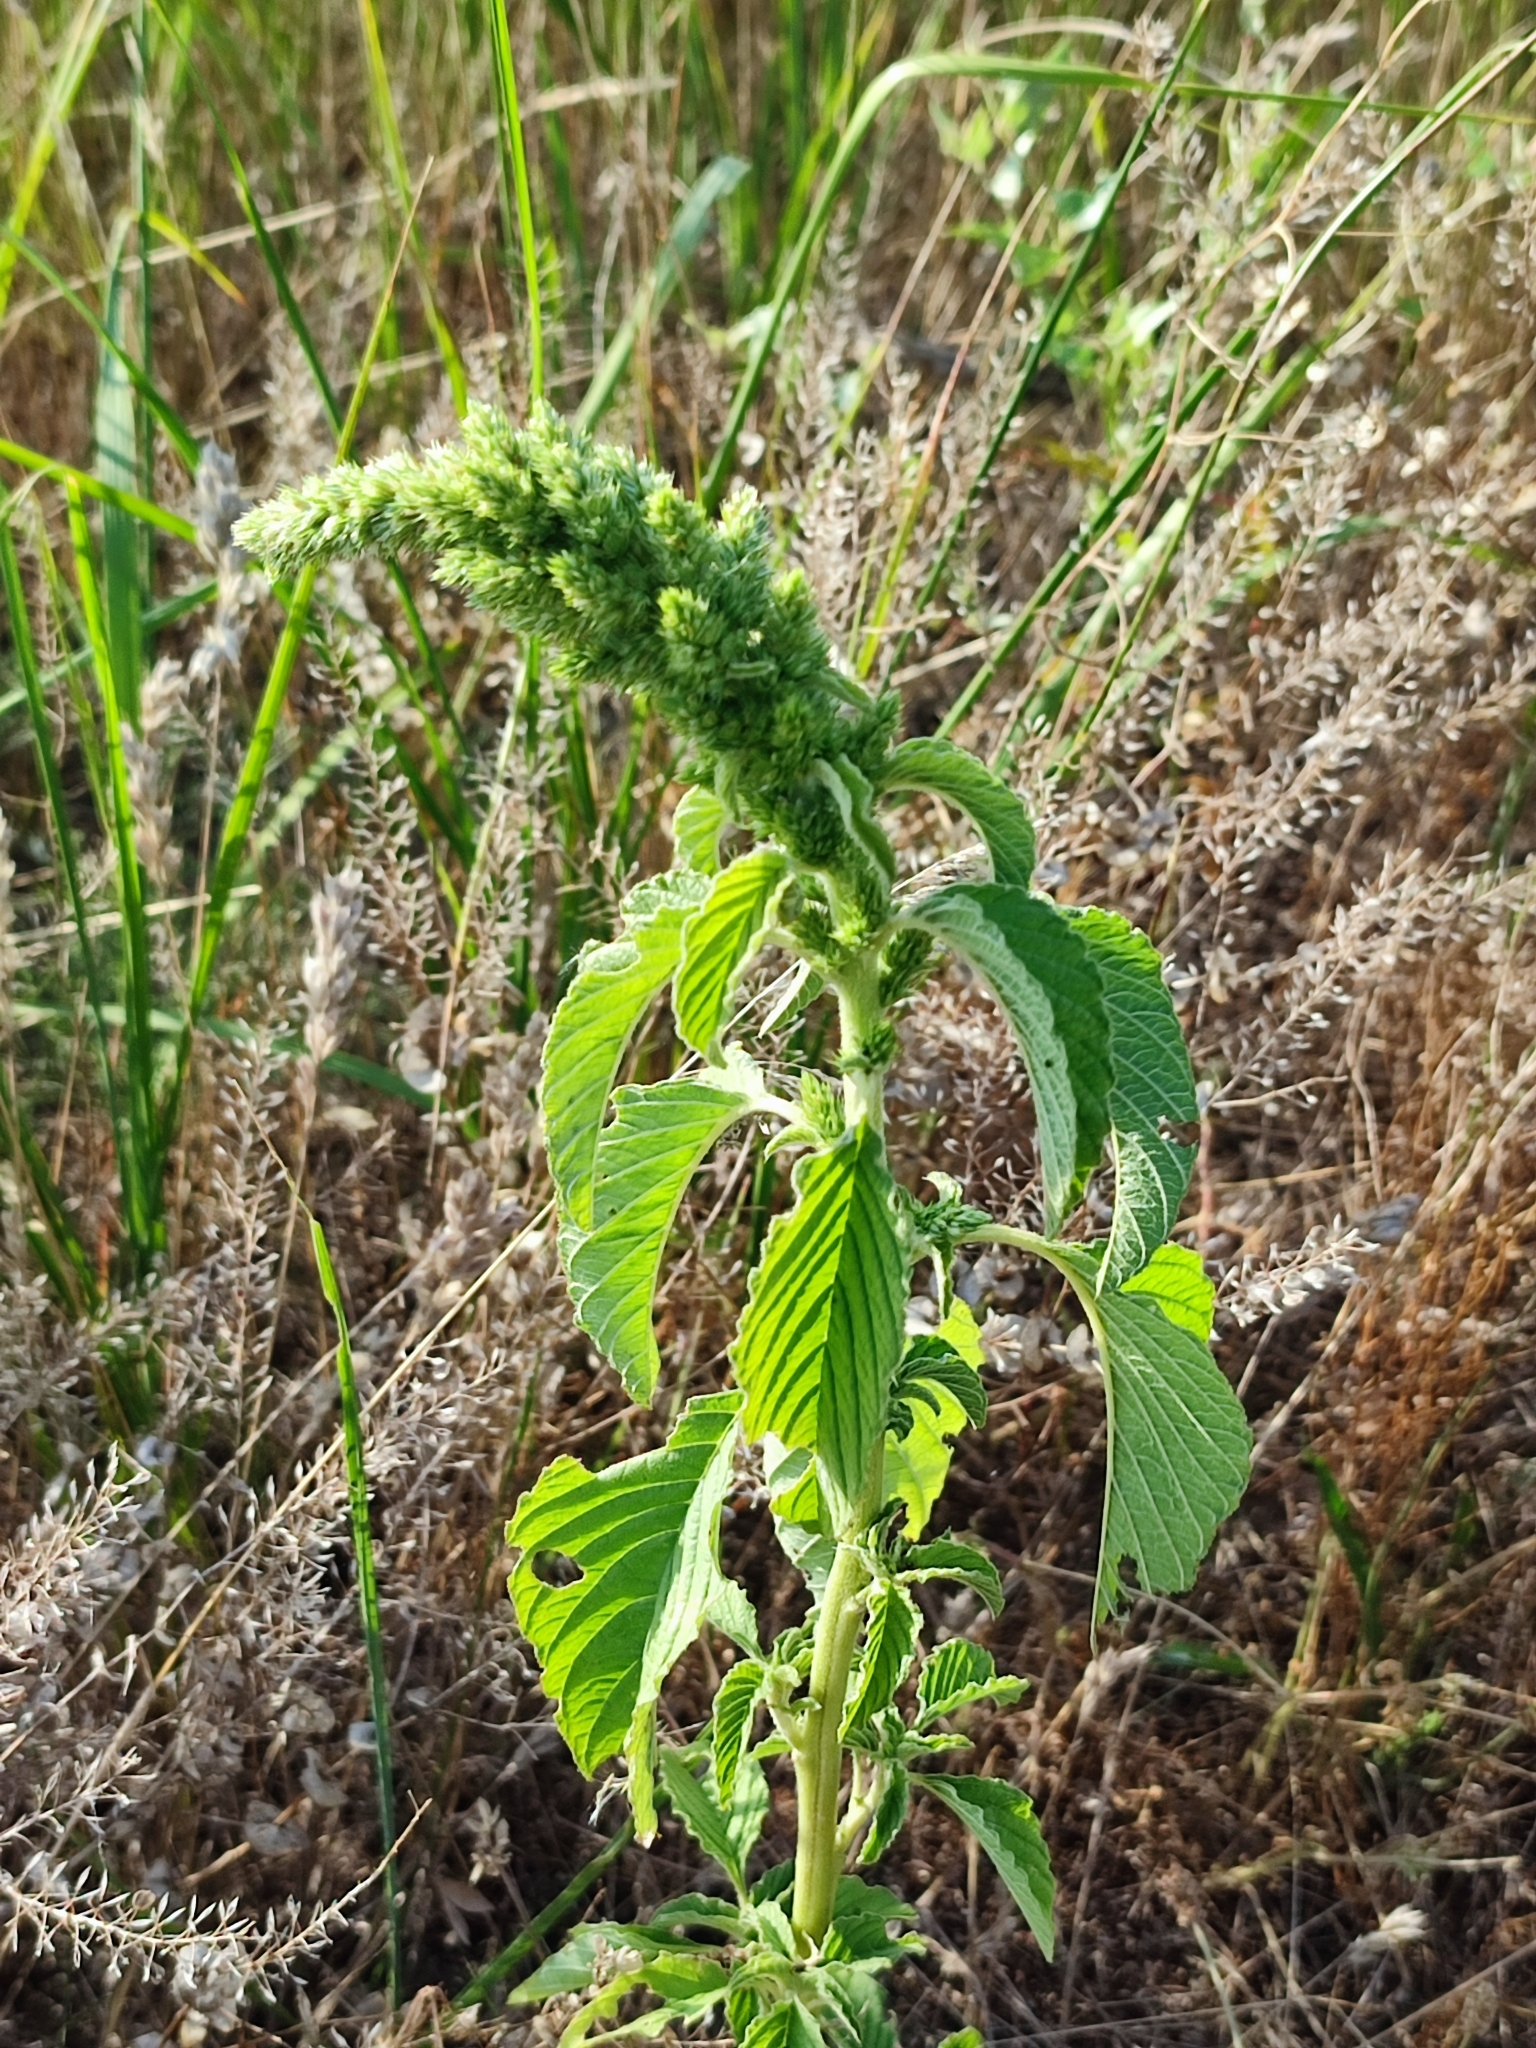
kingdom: Plantae
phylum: Tracheophyta
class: Magnoliopsida
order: Caryophyllales
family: Amaranthaceae
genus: Amaranthus
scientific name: Amaranthus retroflexus
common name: Redroot amaranth
